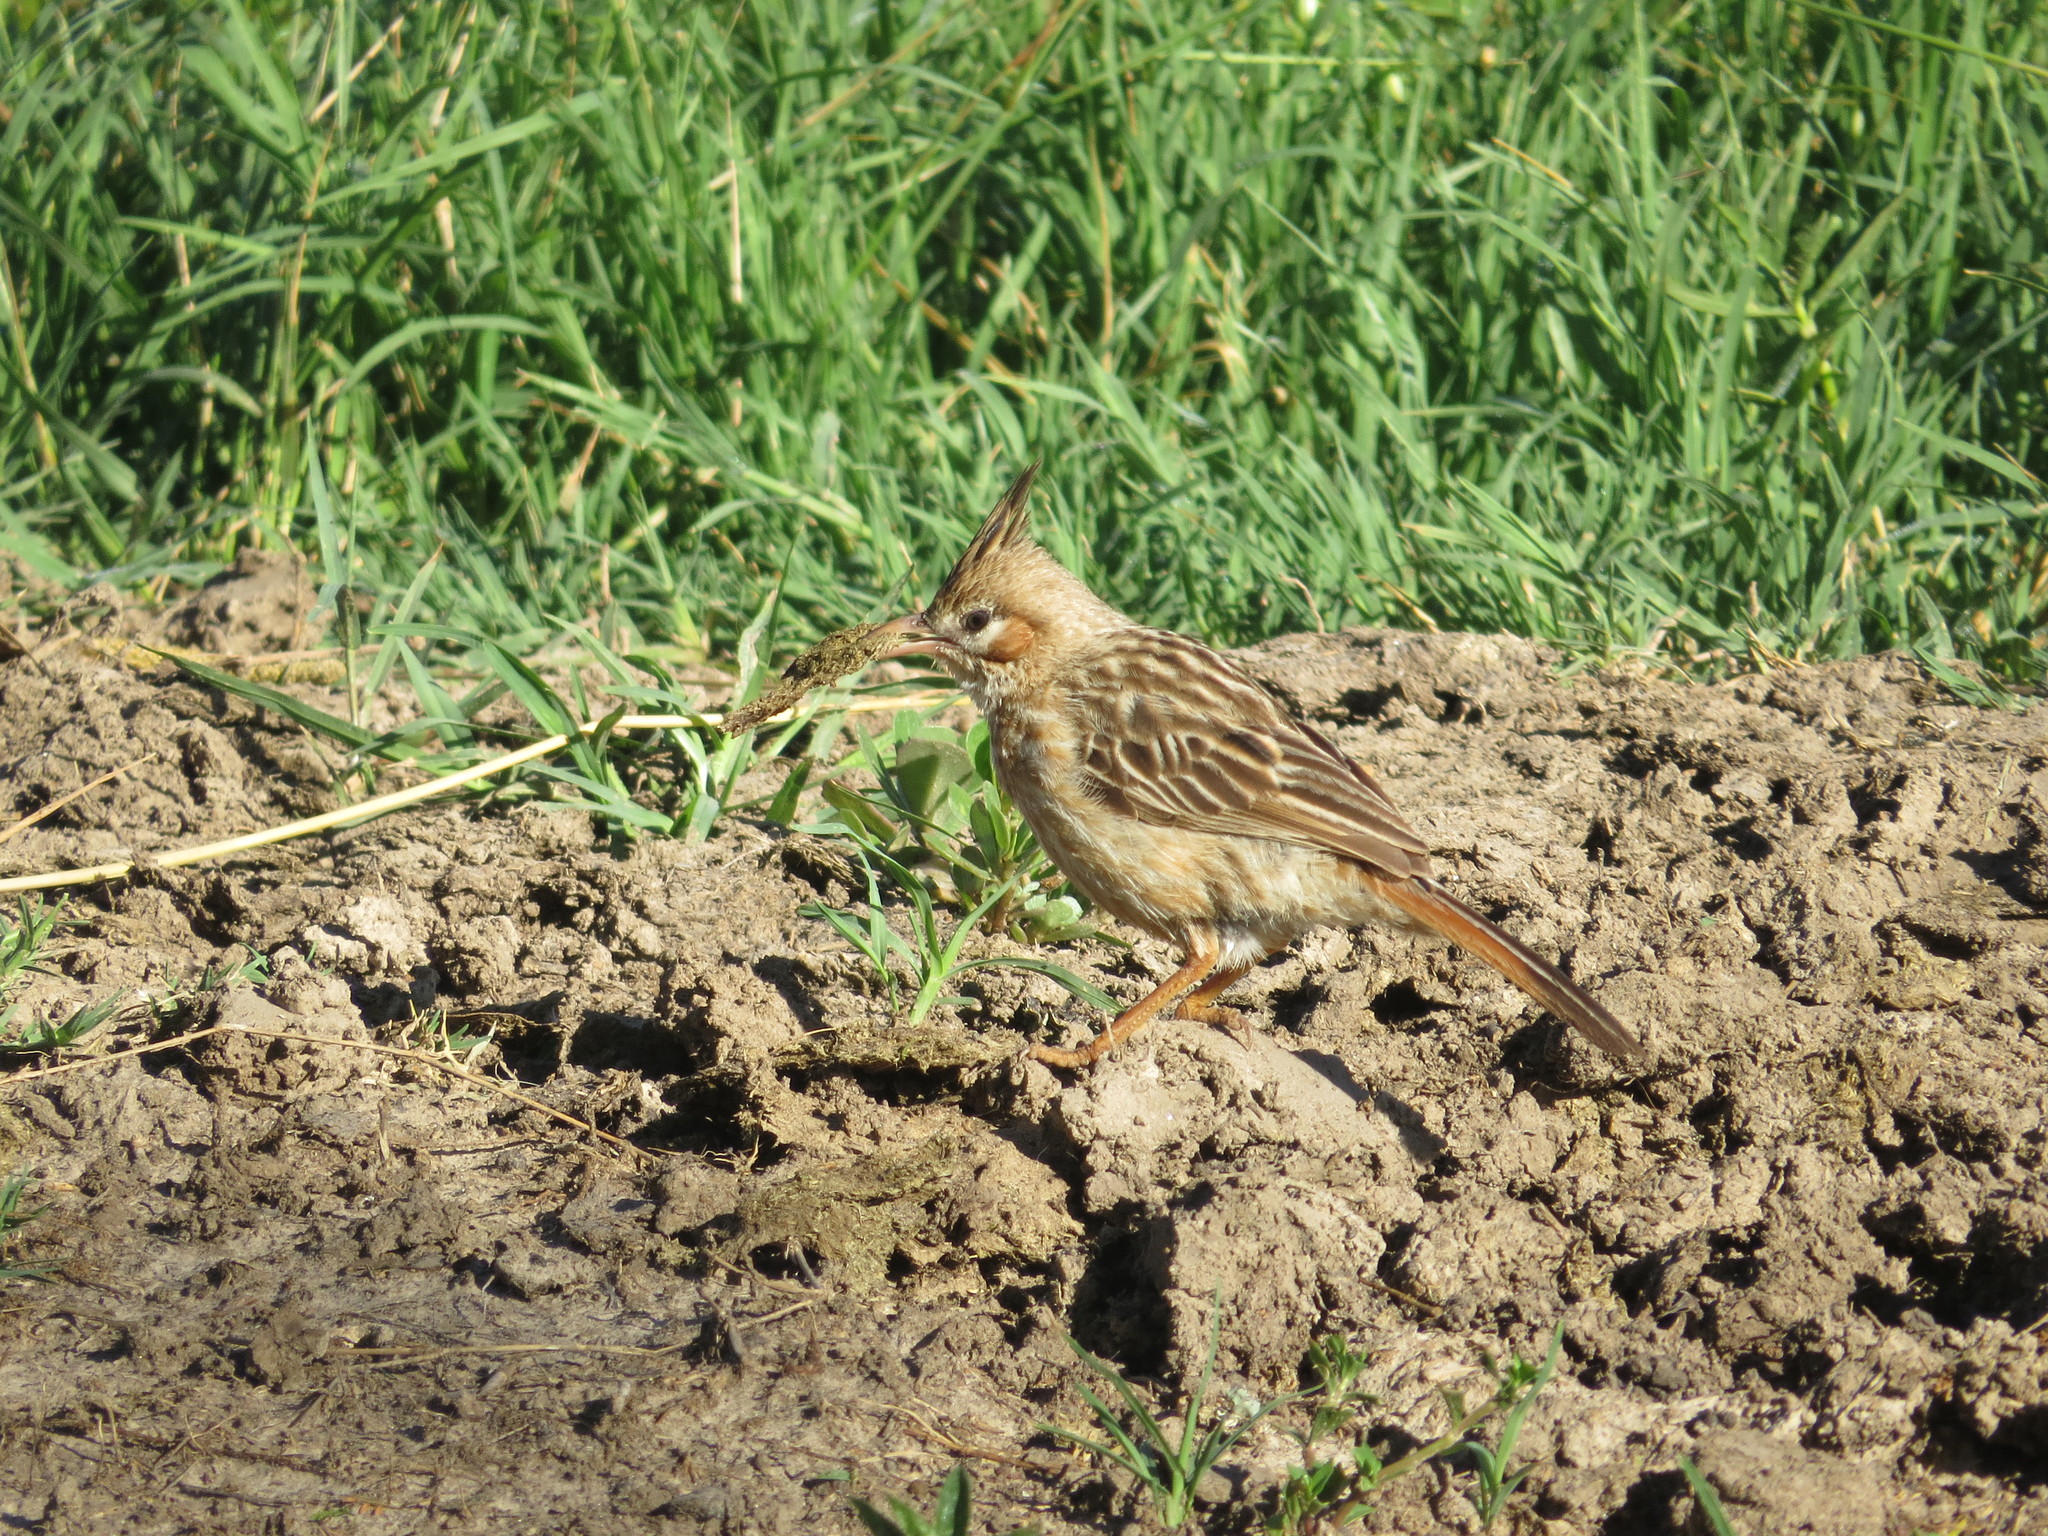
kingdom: Animalia
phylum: Chordata
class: Aves
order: Passeriformes
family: Furnariidae
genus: Coryphistera
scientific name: Coryphistera alaudina
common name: Lark-like brushrunner
